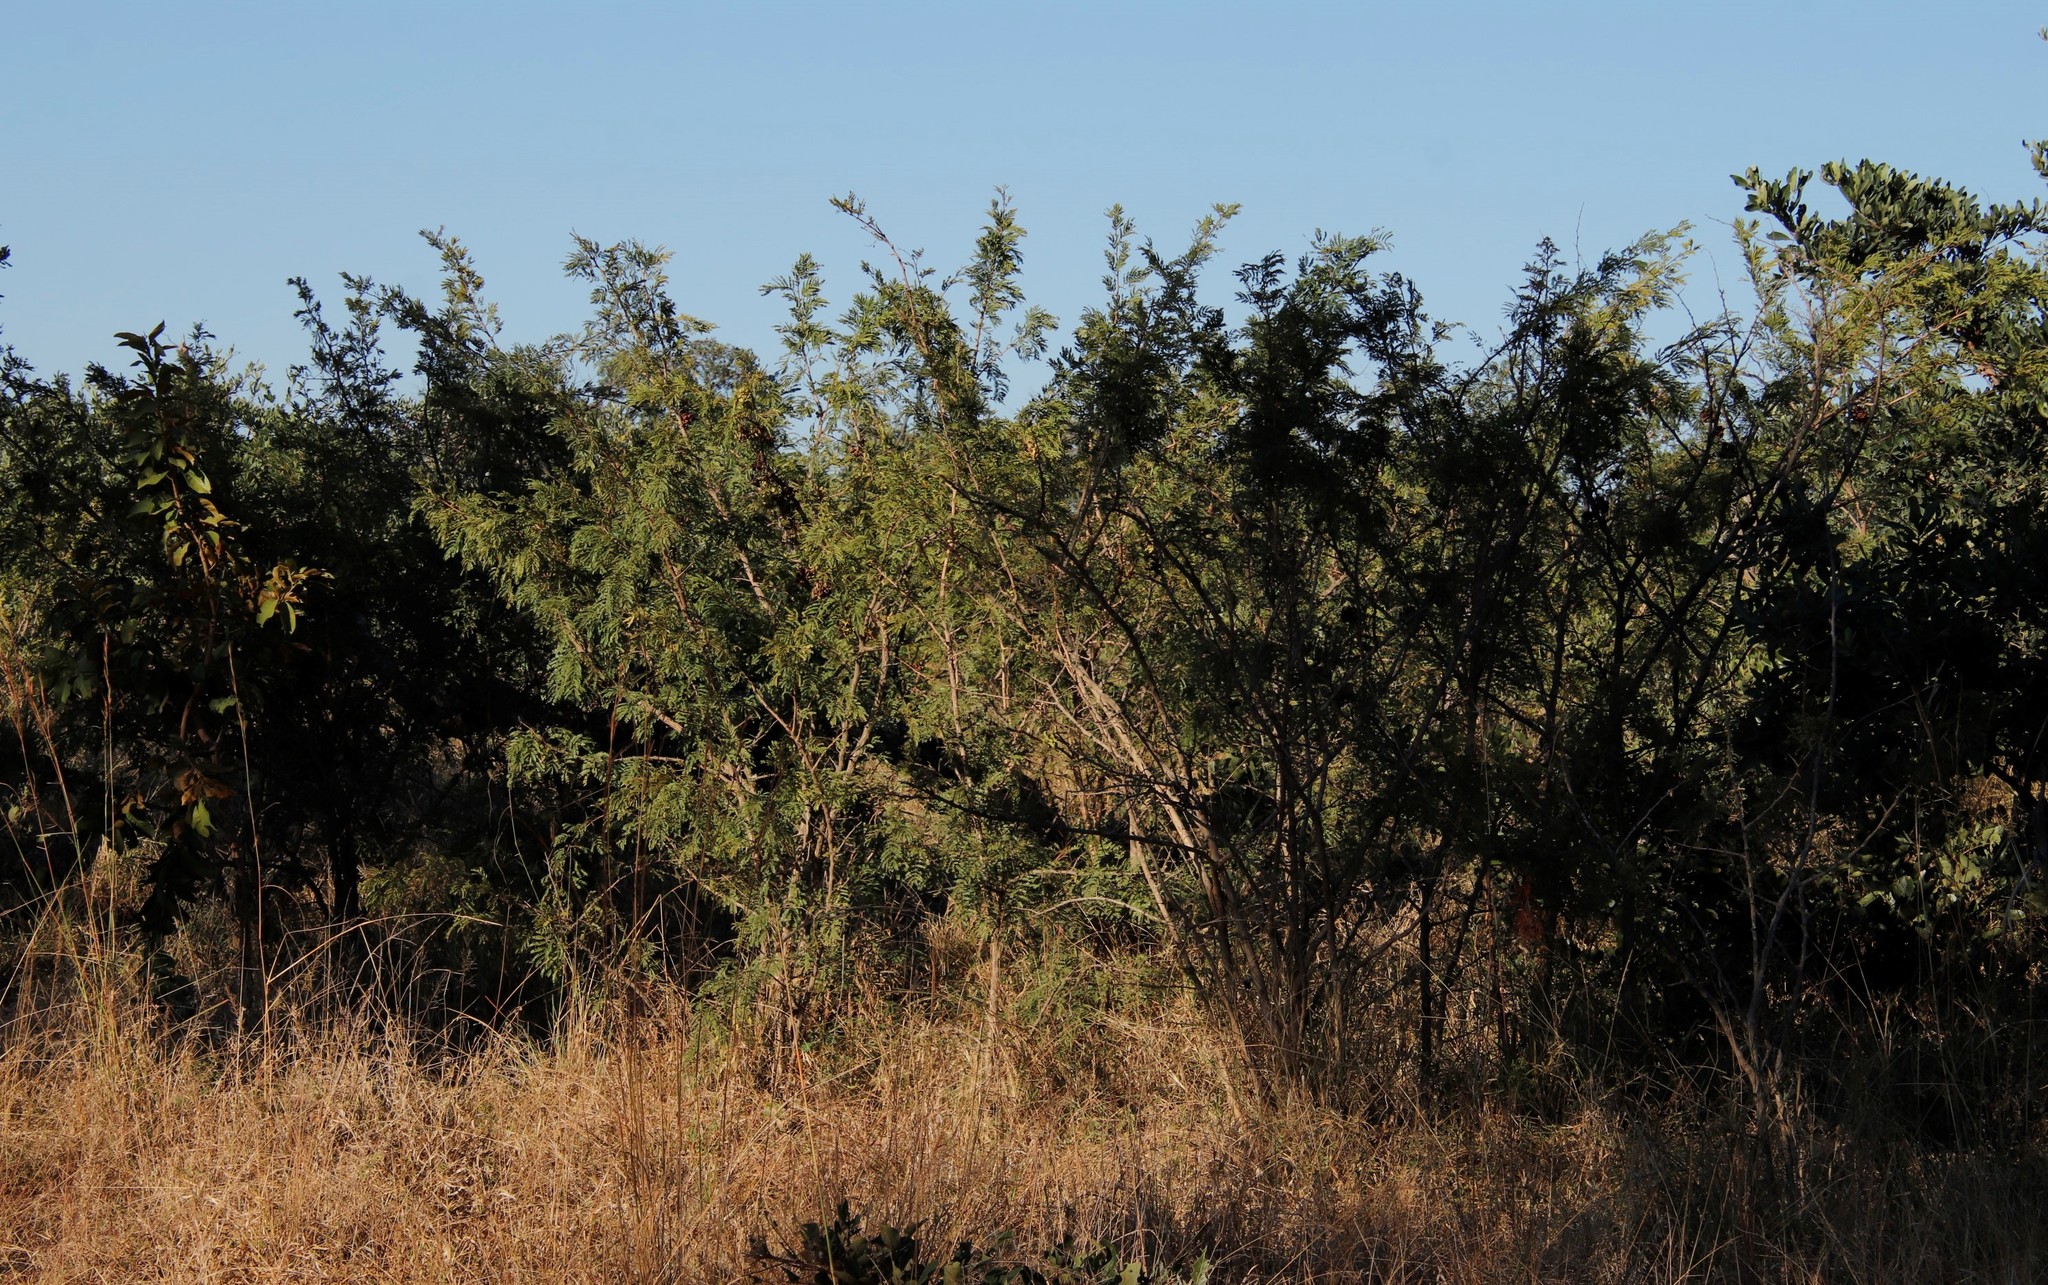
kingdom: Plantae
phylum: Tracheophyta
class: Magnoliopsida
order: Fabales
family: Fabaceae
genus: Dichrostachys
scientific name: Dichrostachys cinerea
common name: Sicklebush
